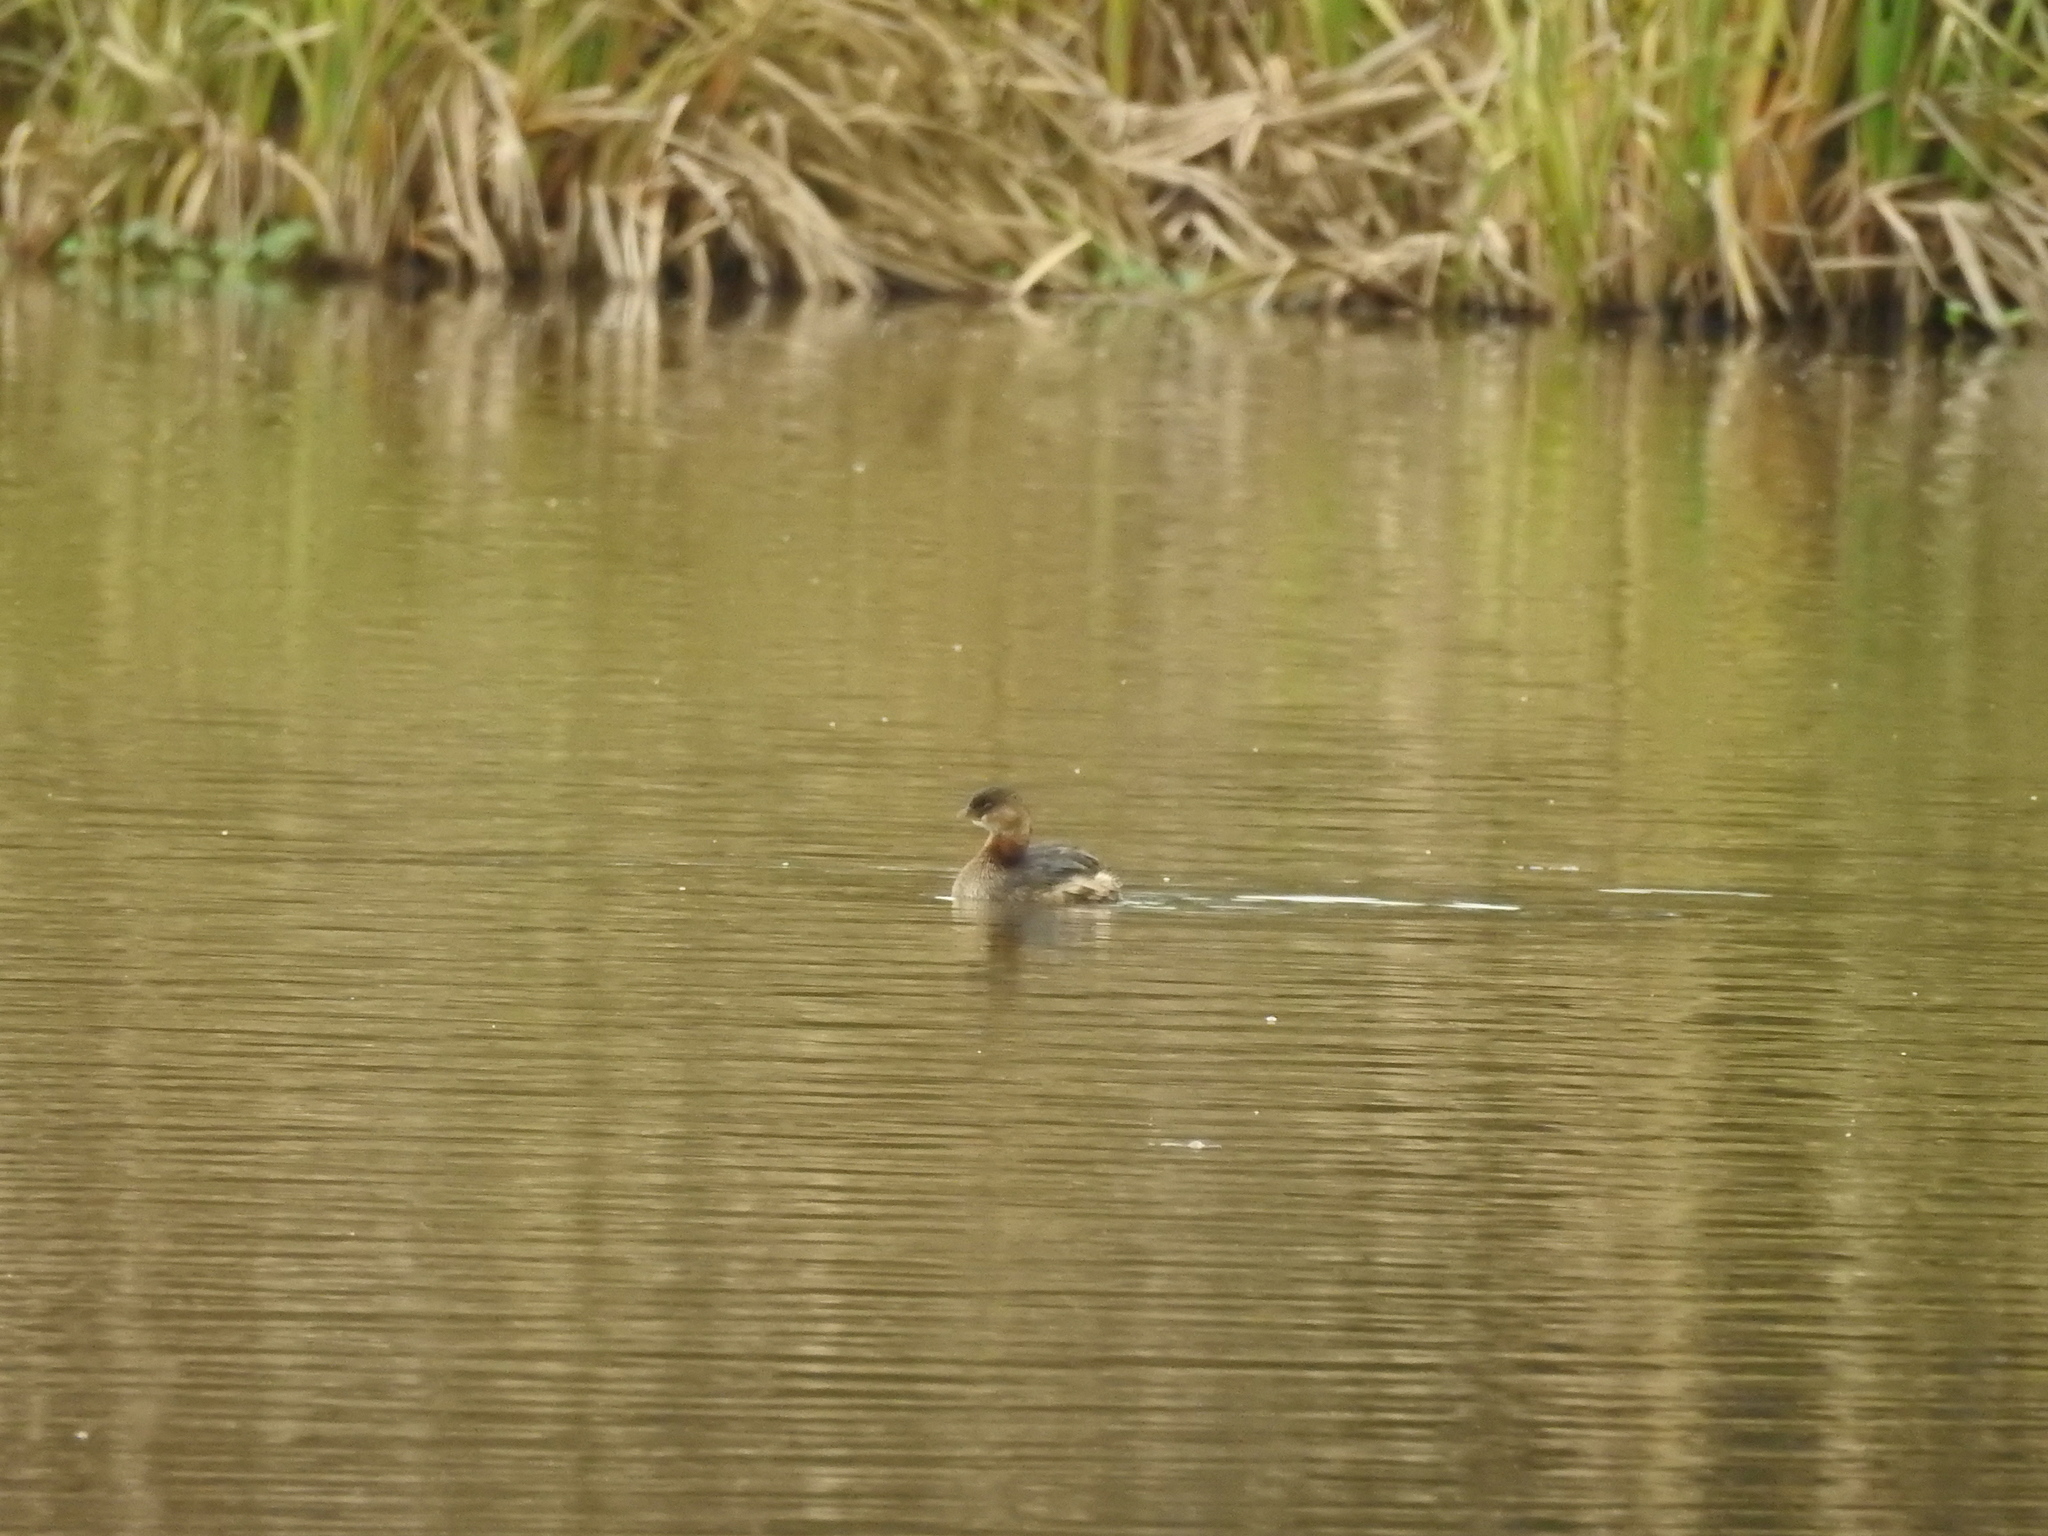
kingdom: Animalia
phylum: Chordata
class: Aves
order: Podicipediformes
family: Podicipedidae
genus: Podilymbus
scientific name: Podilymbus podiceps
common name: Pied-billed grebe
